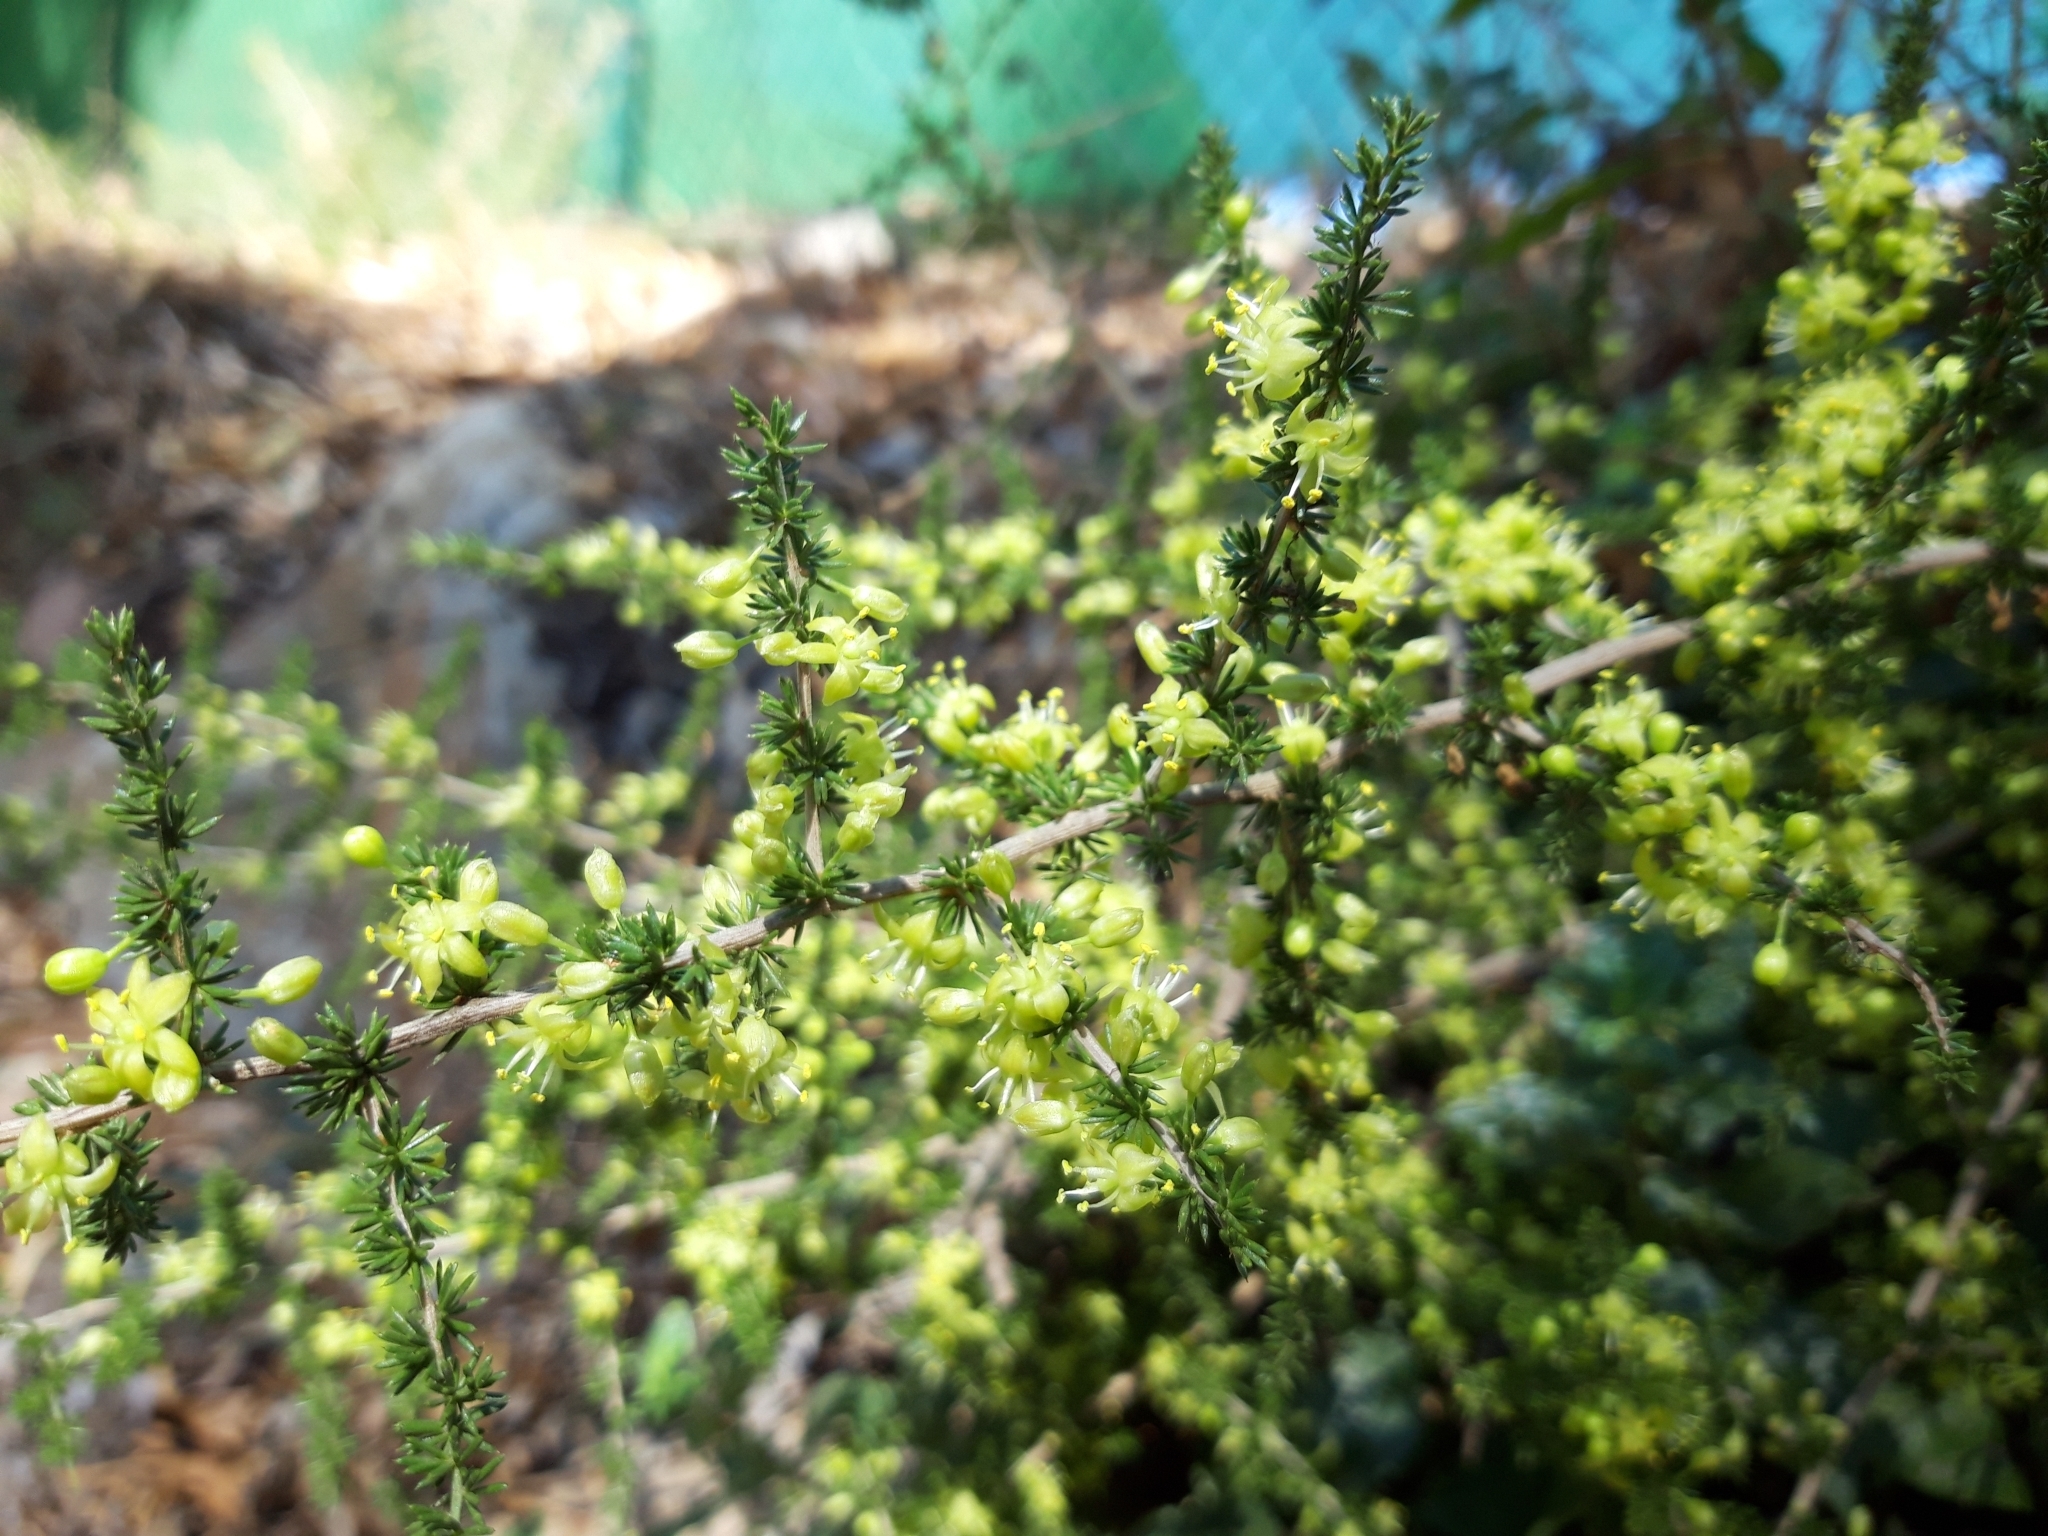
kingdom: Plantae
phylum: Tracheophyta
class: Liliopsida
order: Asparagales
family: Asparagaceae
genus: Asparagus
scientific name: Asparagus acutifolius
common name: Wild asparagus
